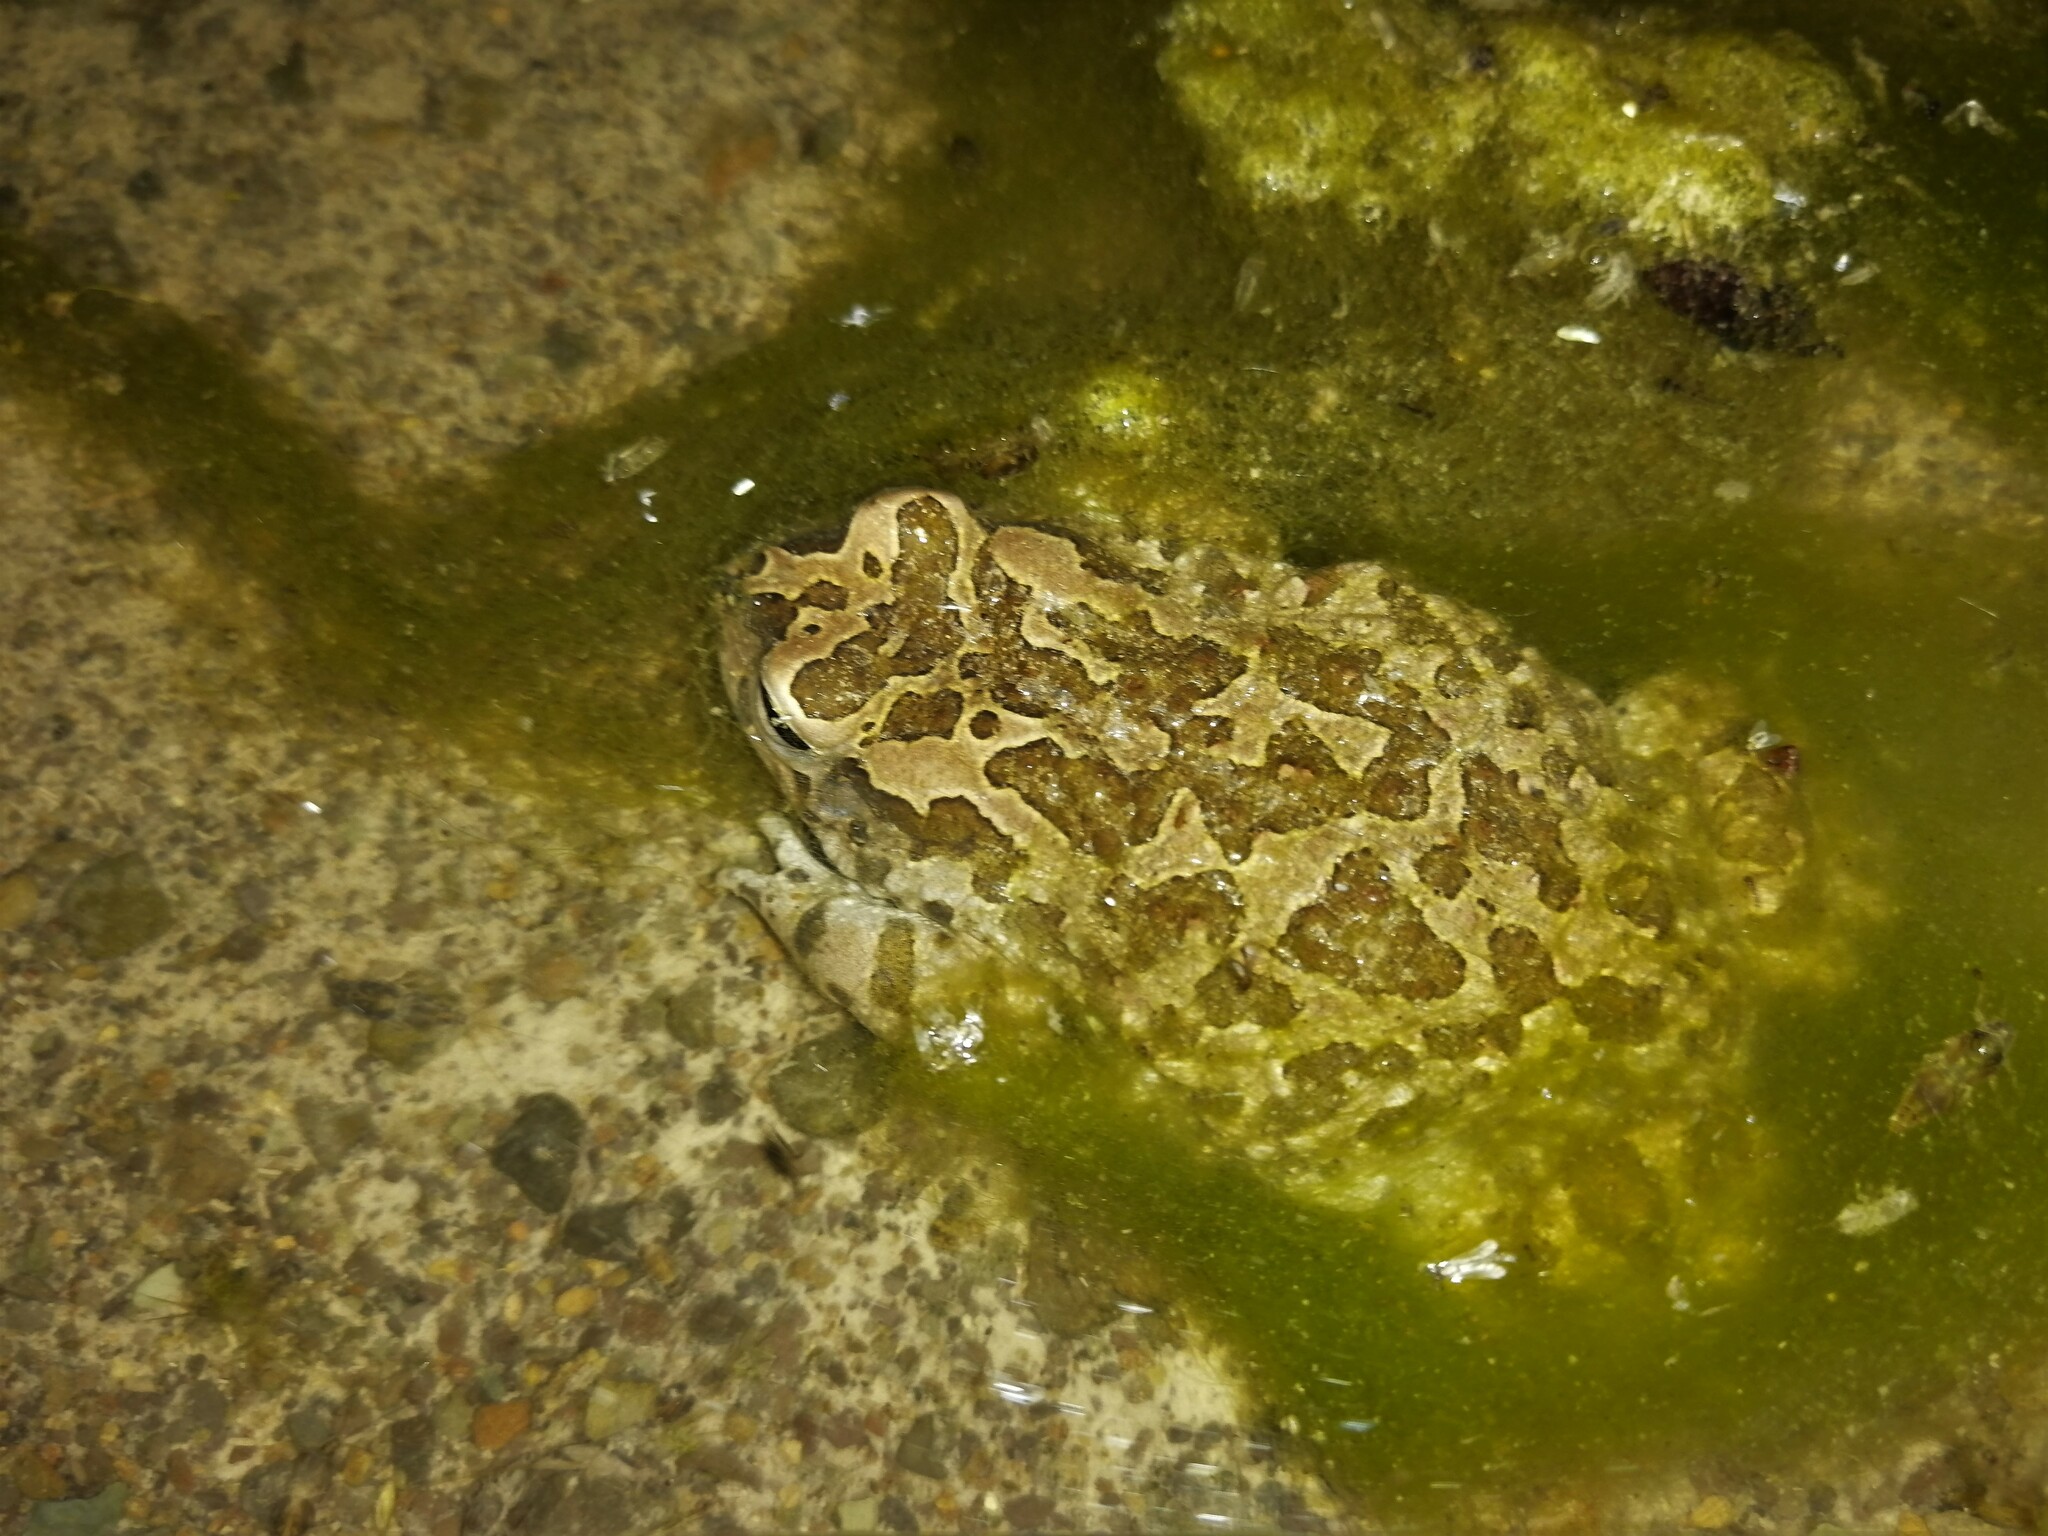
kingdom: Animalia
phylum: Chordata
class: Amphibia
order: Anura
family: Bufonidae
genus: Vandijkophrynus
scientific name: Vandijkophrynus gariepensis
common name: Gariep toad
